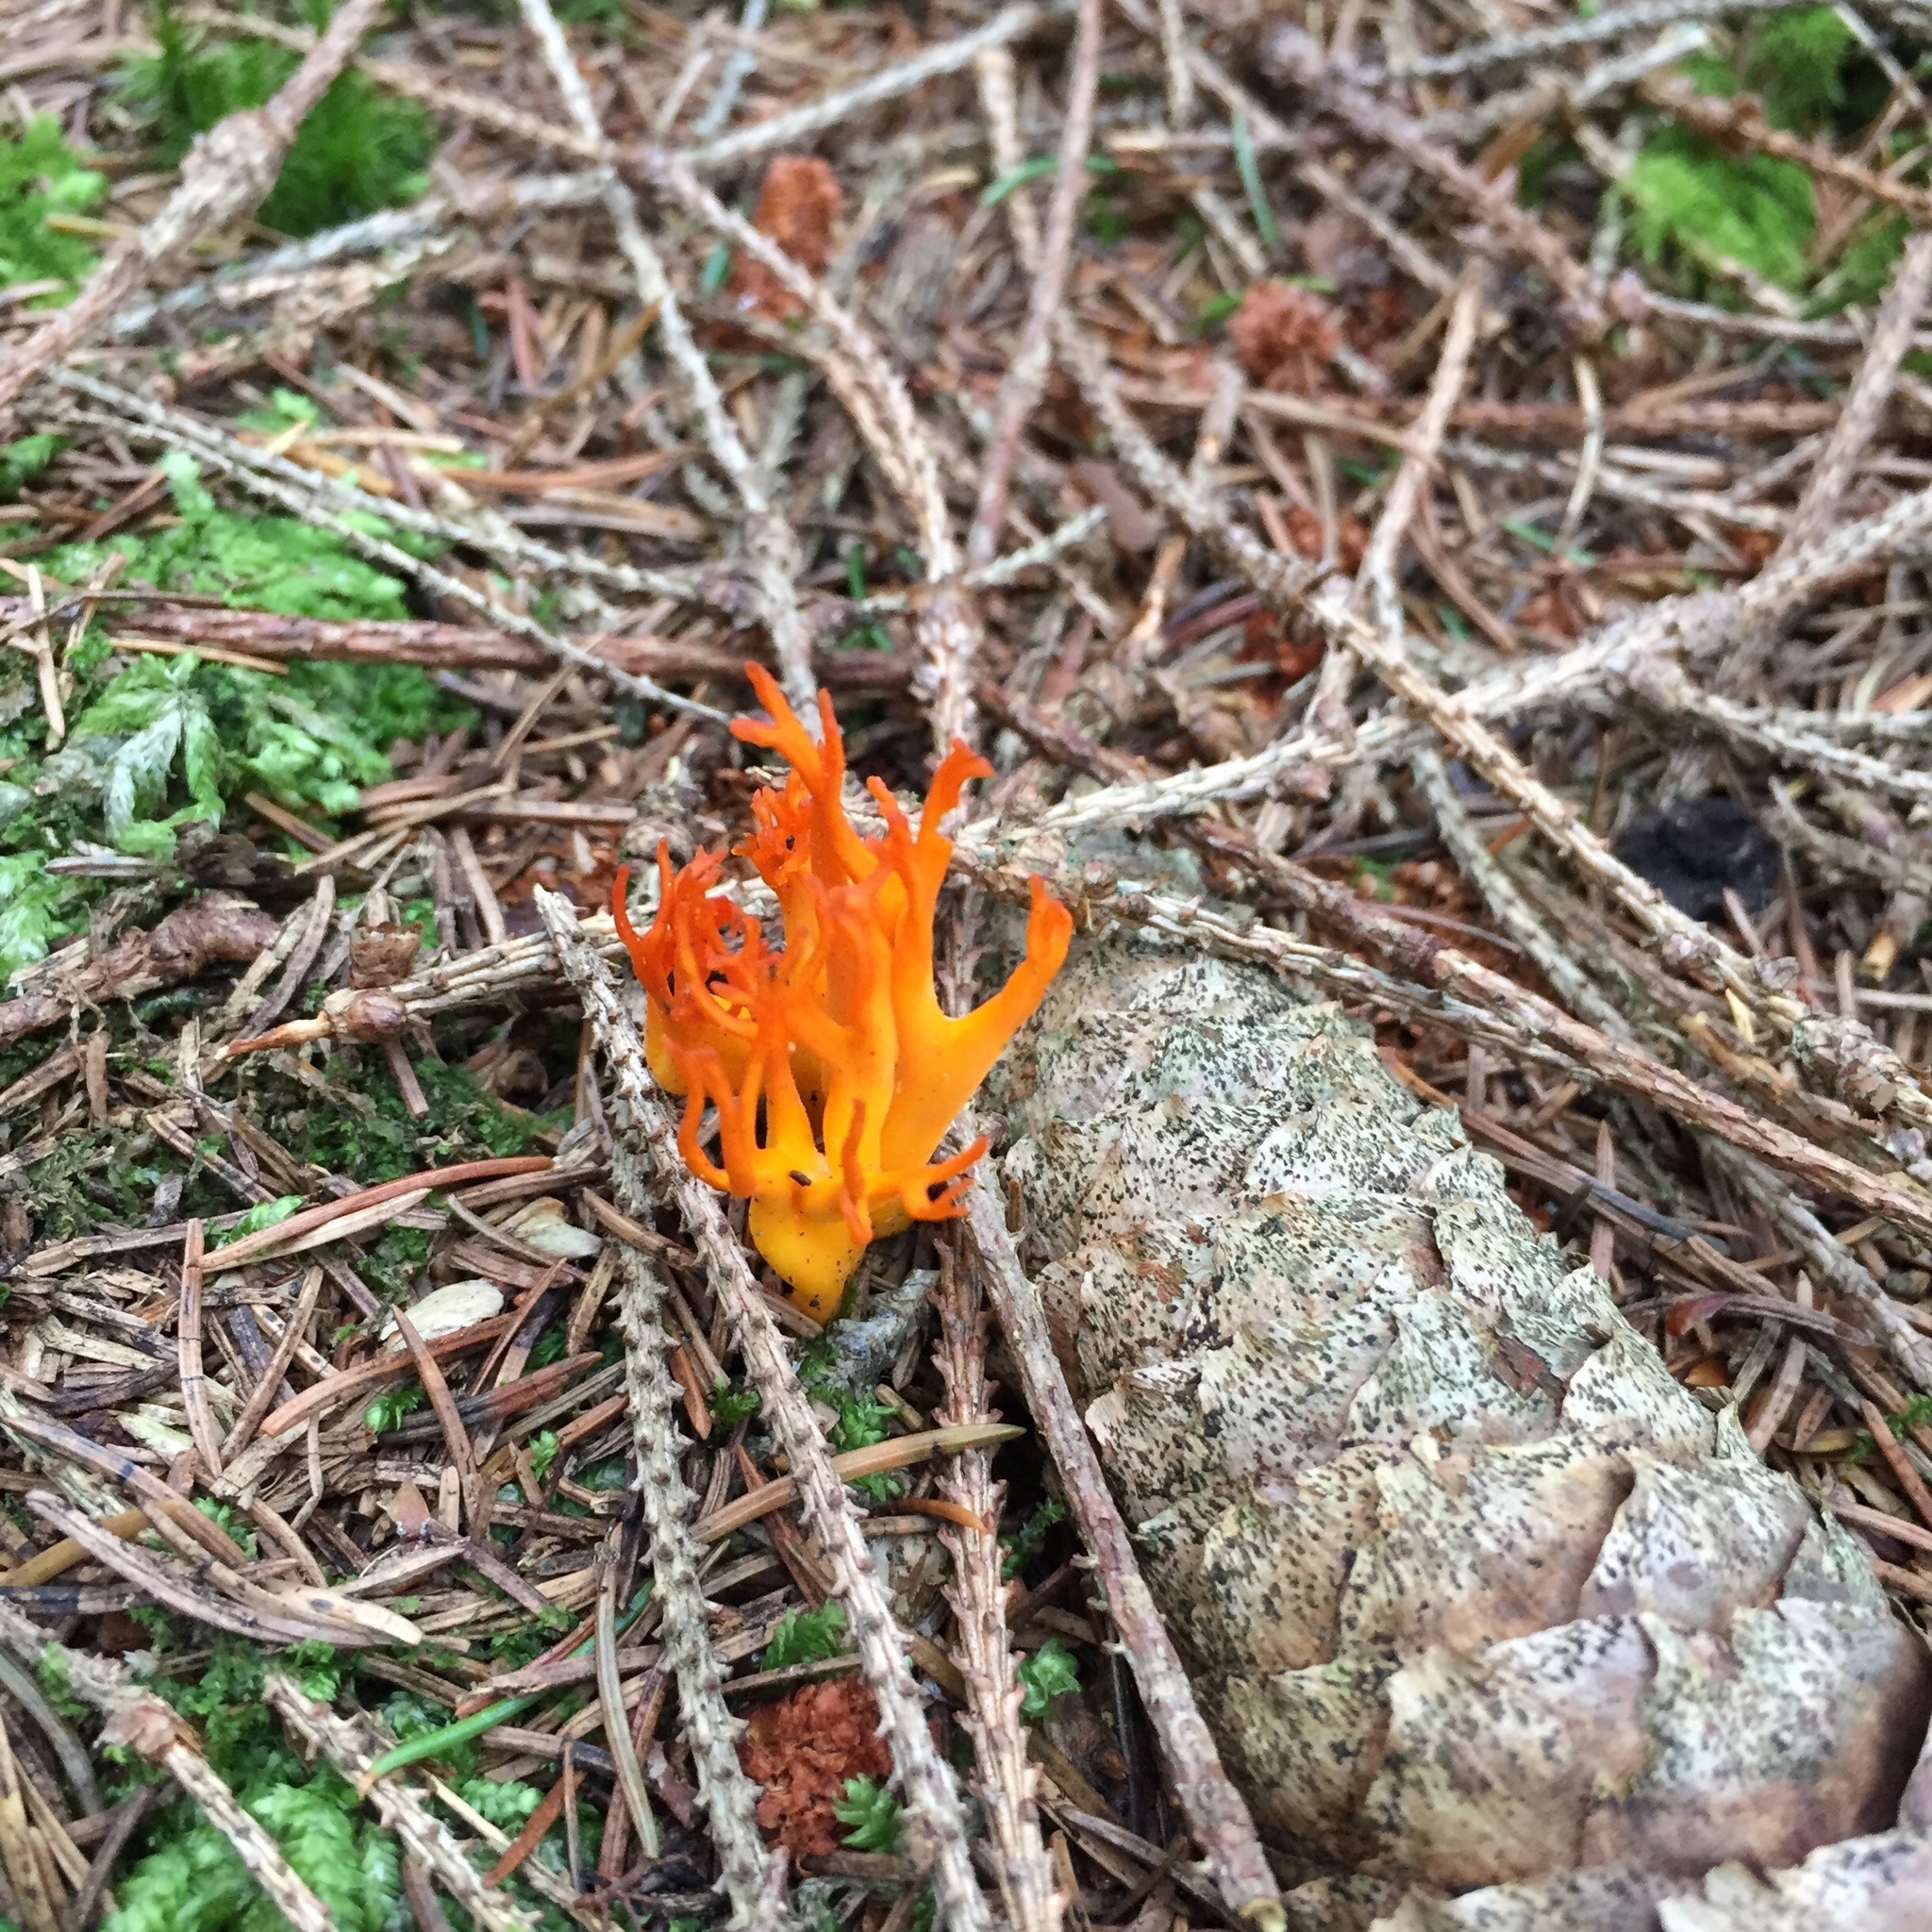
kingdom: Fungi
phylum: Basidiomycota
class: Dacrymycetes
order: Dacrymycetales
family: Dacrymycetaceae
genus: Calocera
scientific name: Calocera viscosa
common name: Yellow stagshorn
